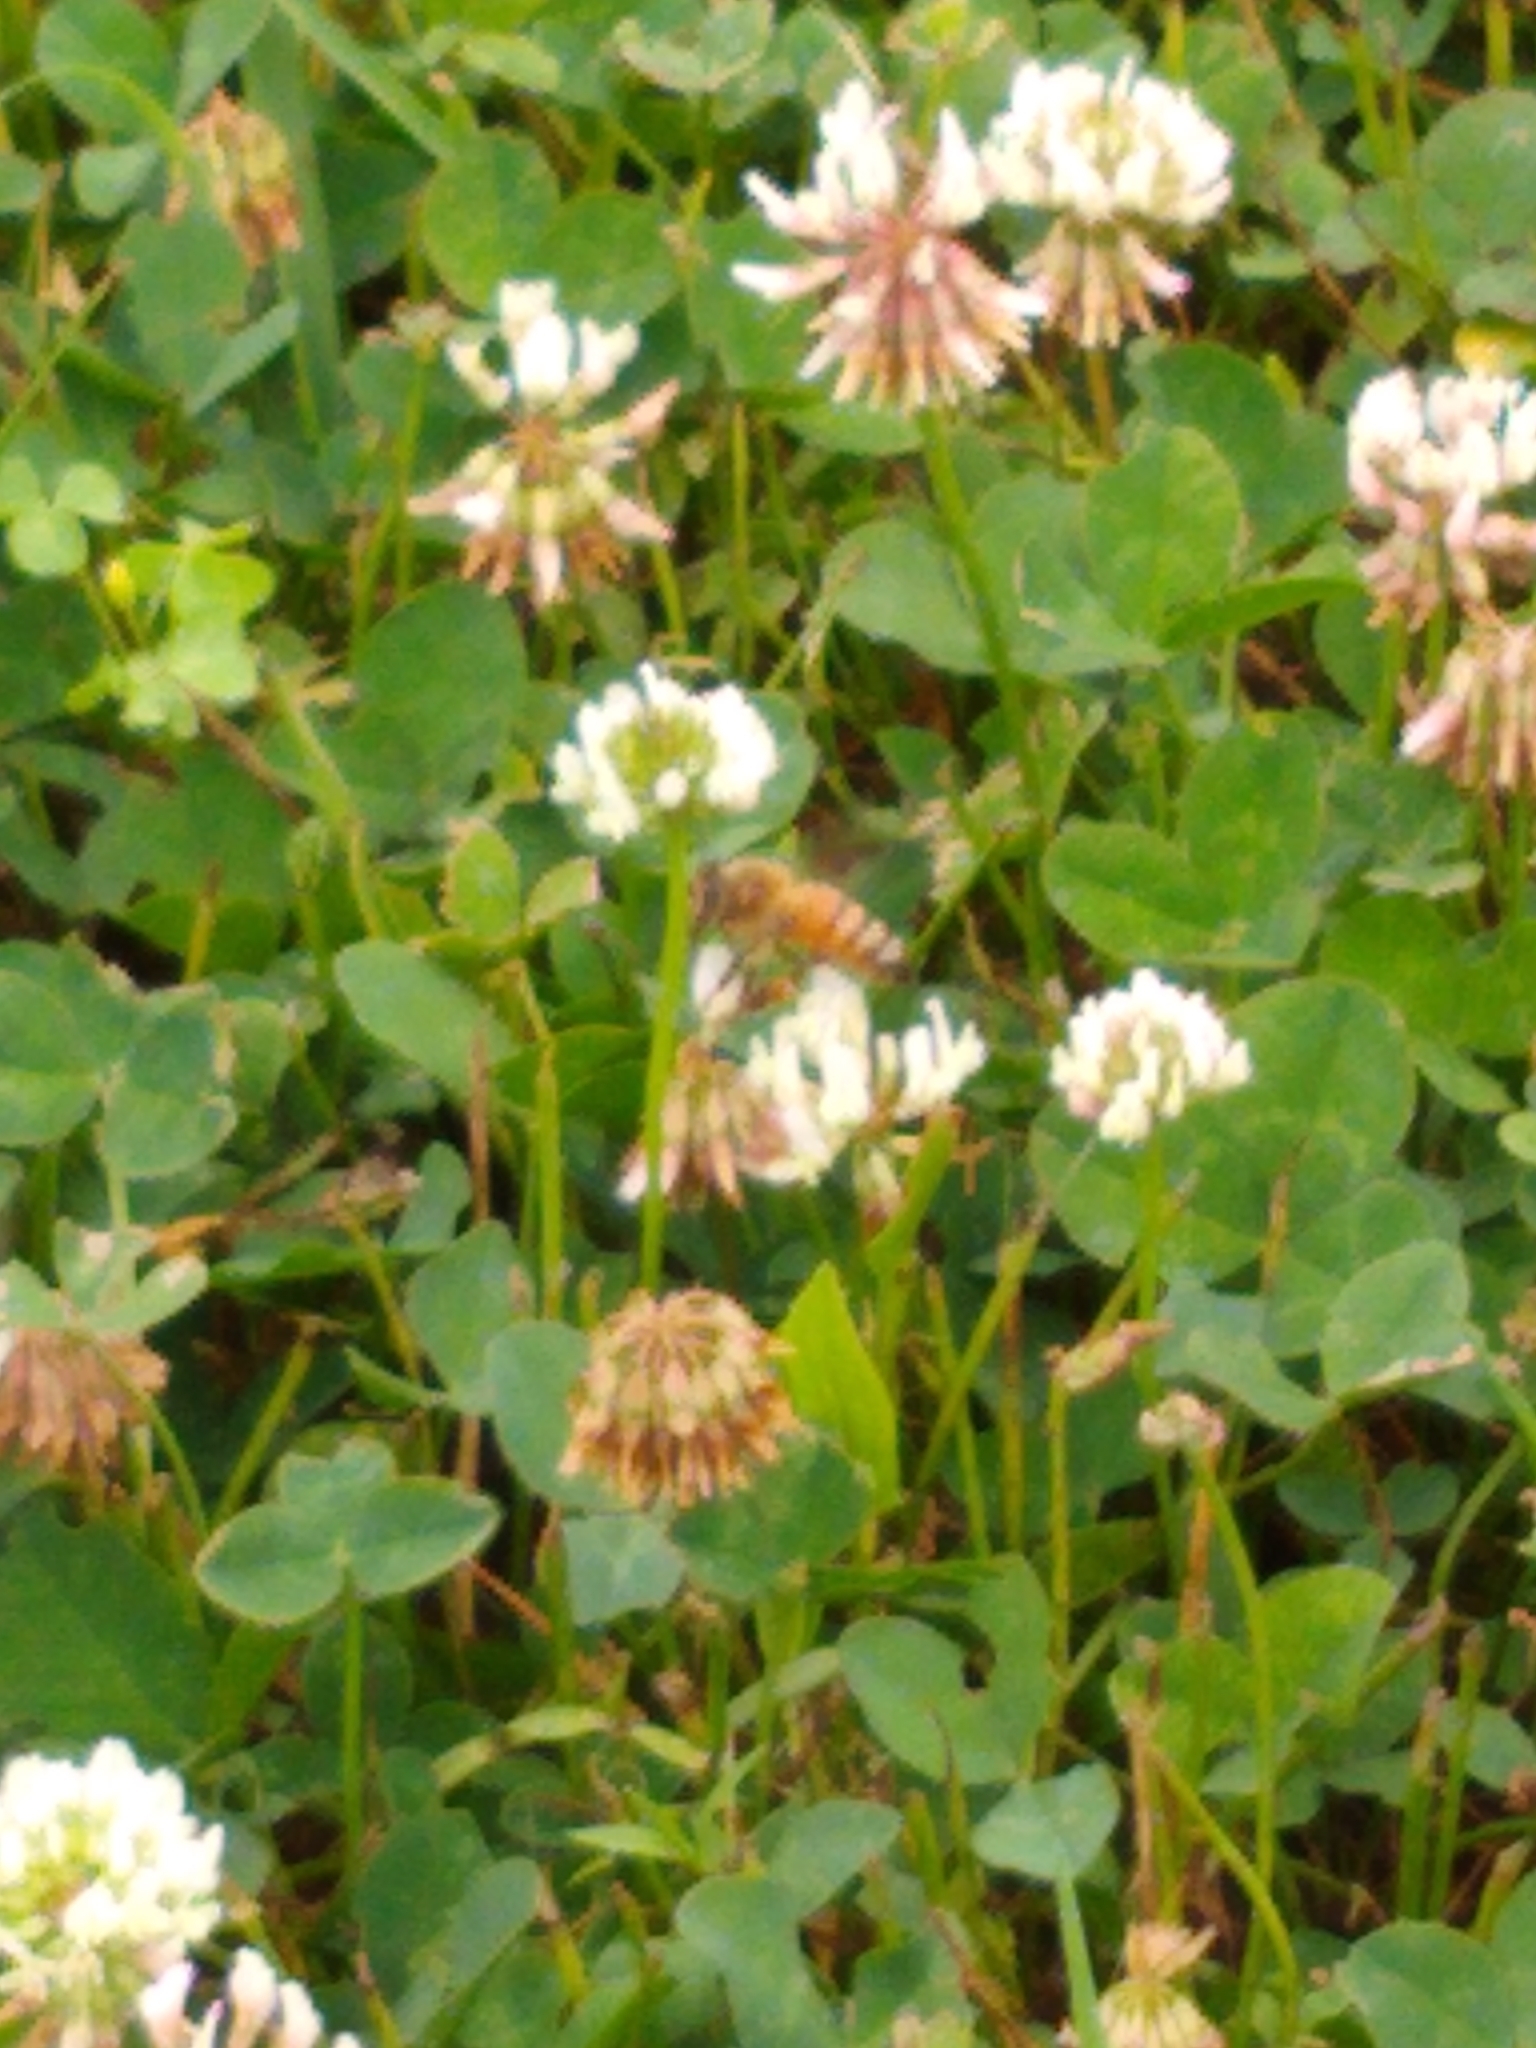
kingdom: Animalia
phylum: Arthropoda
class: Insecta
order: Hymenoptera
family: Apidae
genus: Apis
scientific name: Apis mellifera
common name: Honey bee
